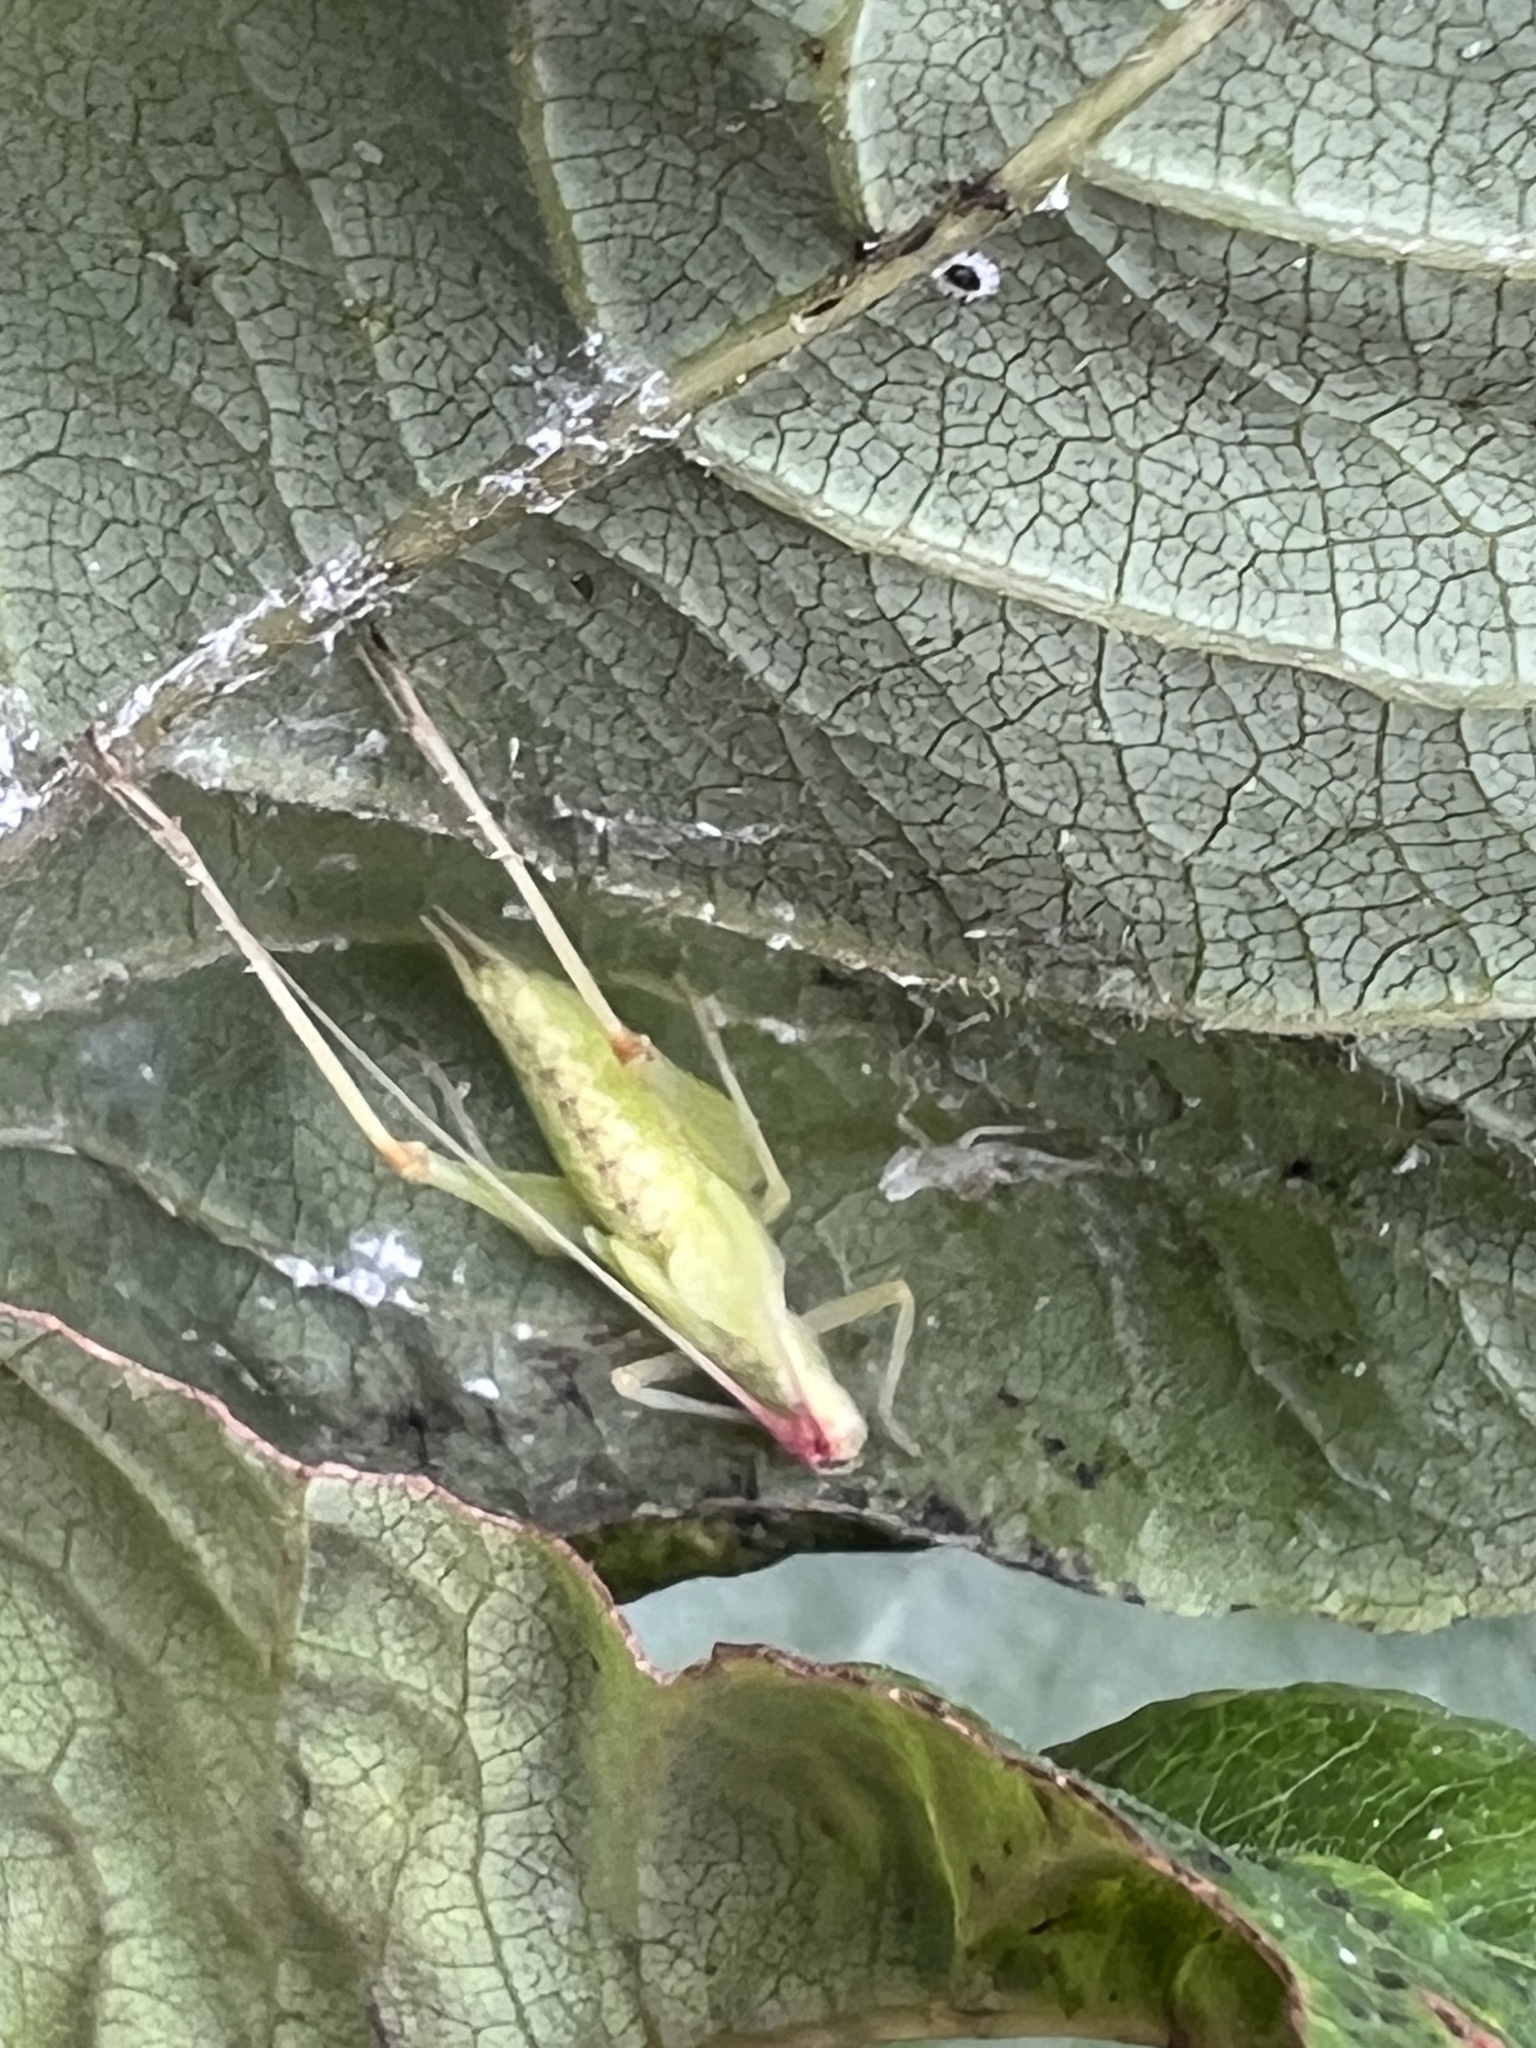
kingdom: Animalia
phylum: Arthropoda
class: Insecta
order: Orthoptera
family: Gryllidae
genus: Oecanthus
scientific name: Oecanthus latipennis
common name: Broad-winged tree cricket
